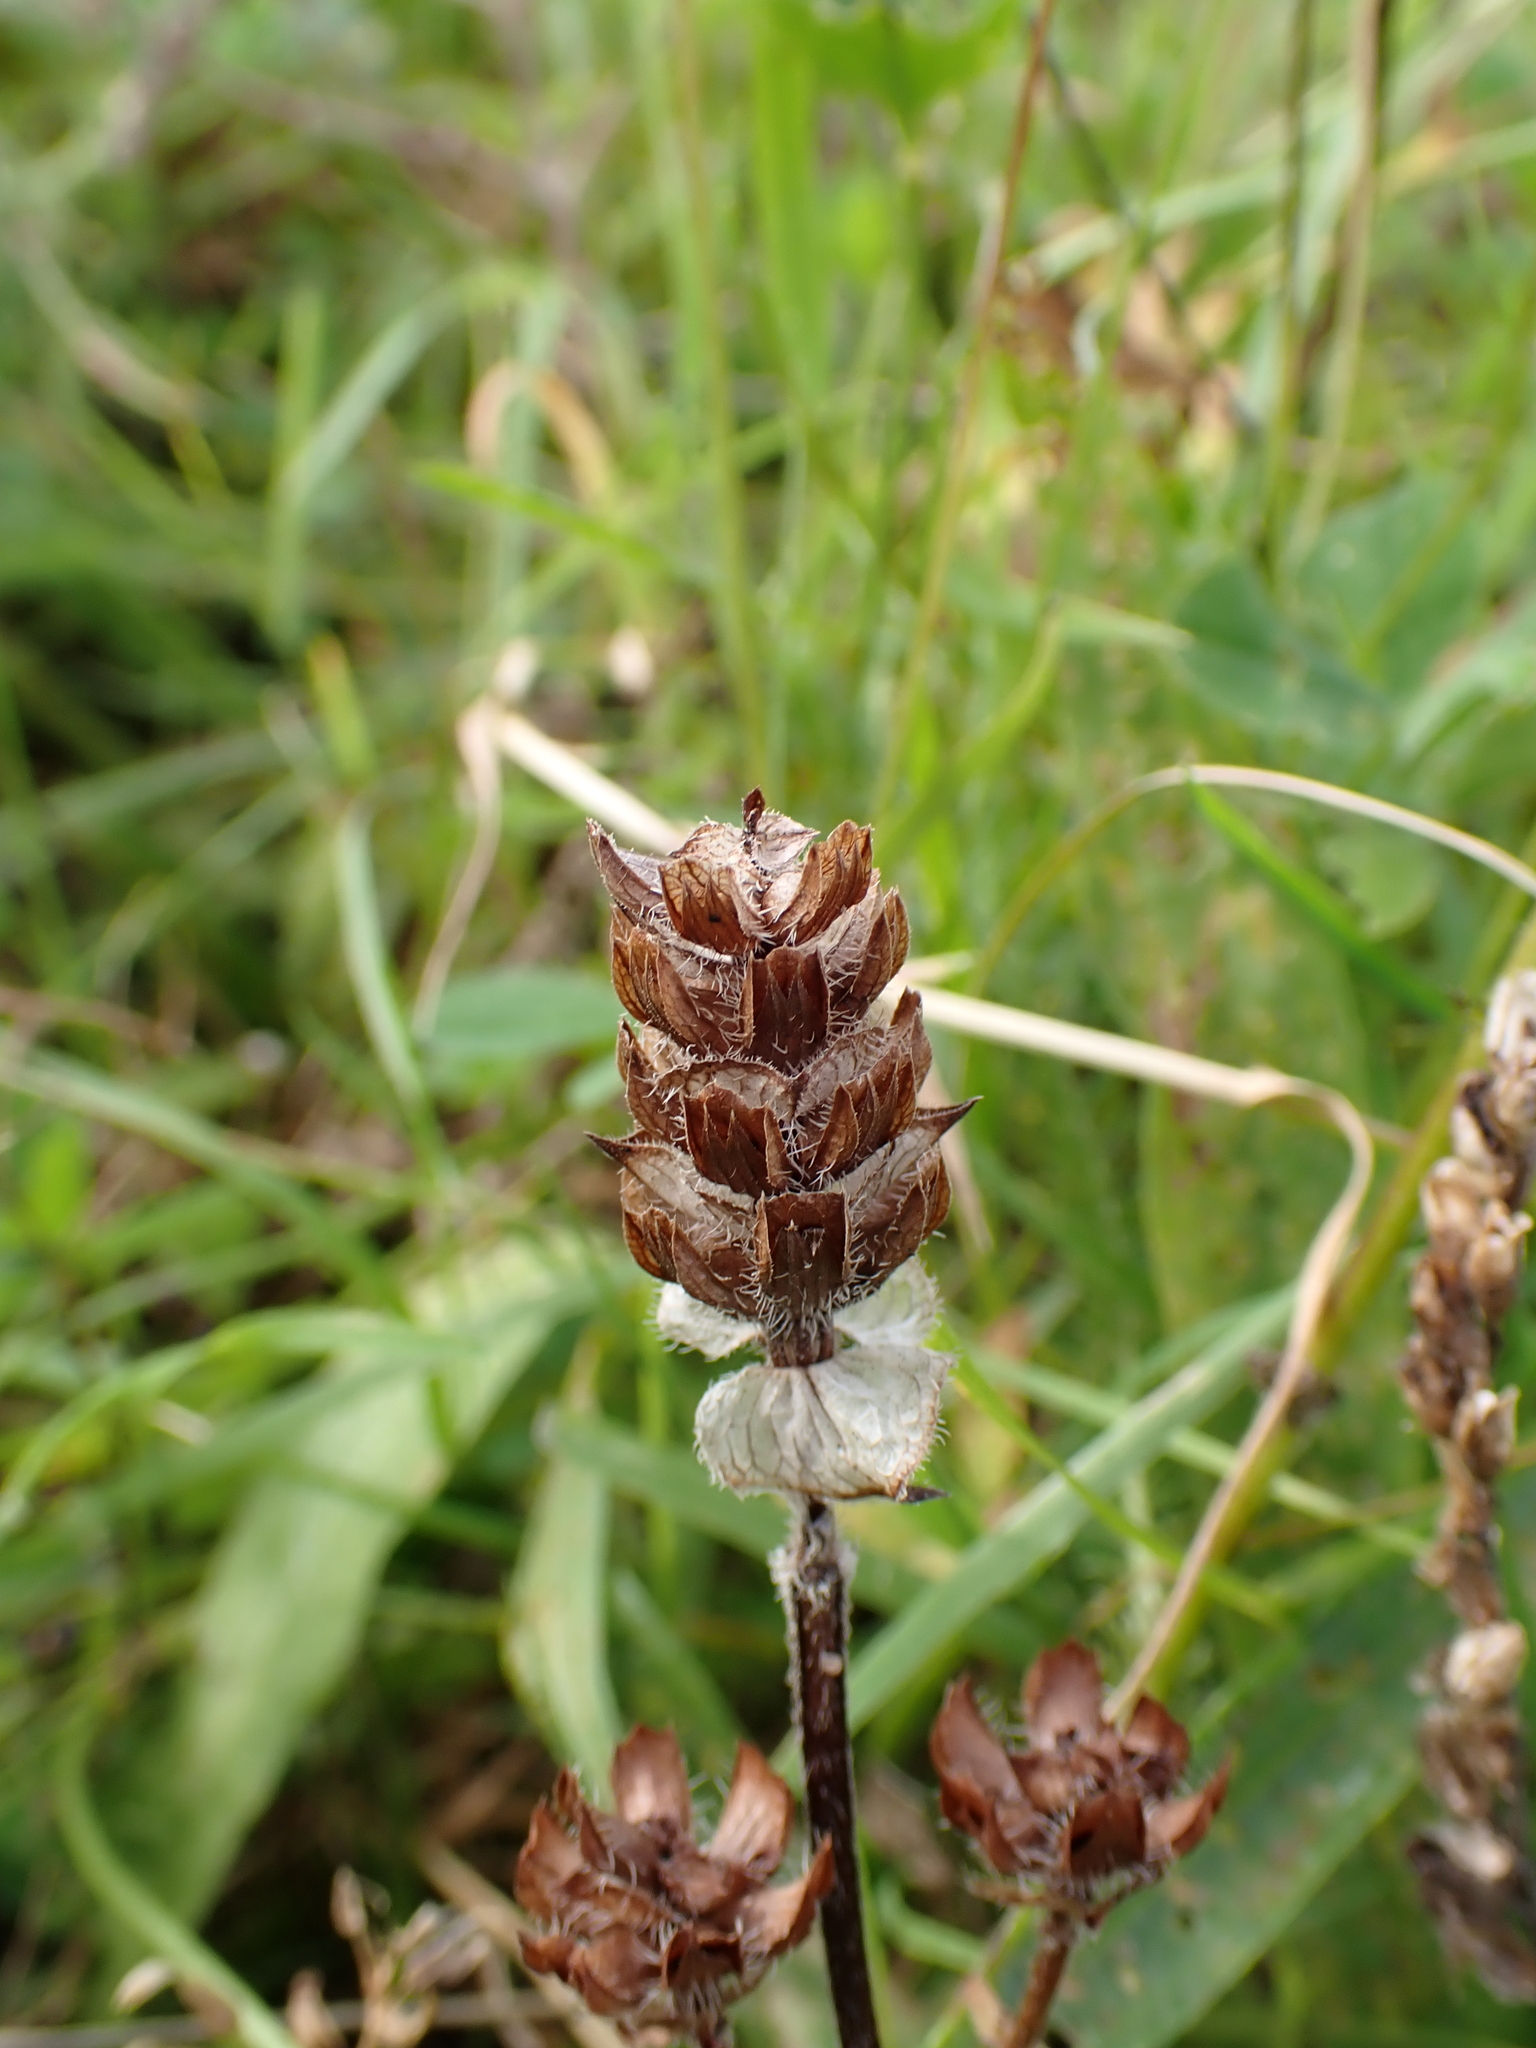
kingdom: Plantae
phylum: Tracheophyta
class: Magnoliopsida
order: Lamiales
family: Lamiaceae
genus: Prunella
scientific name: Prunella vulgaris
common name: Heal-all
